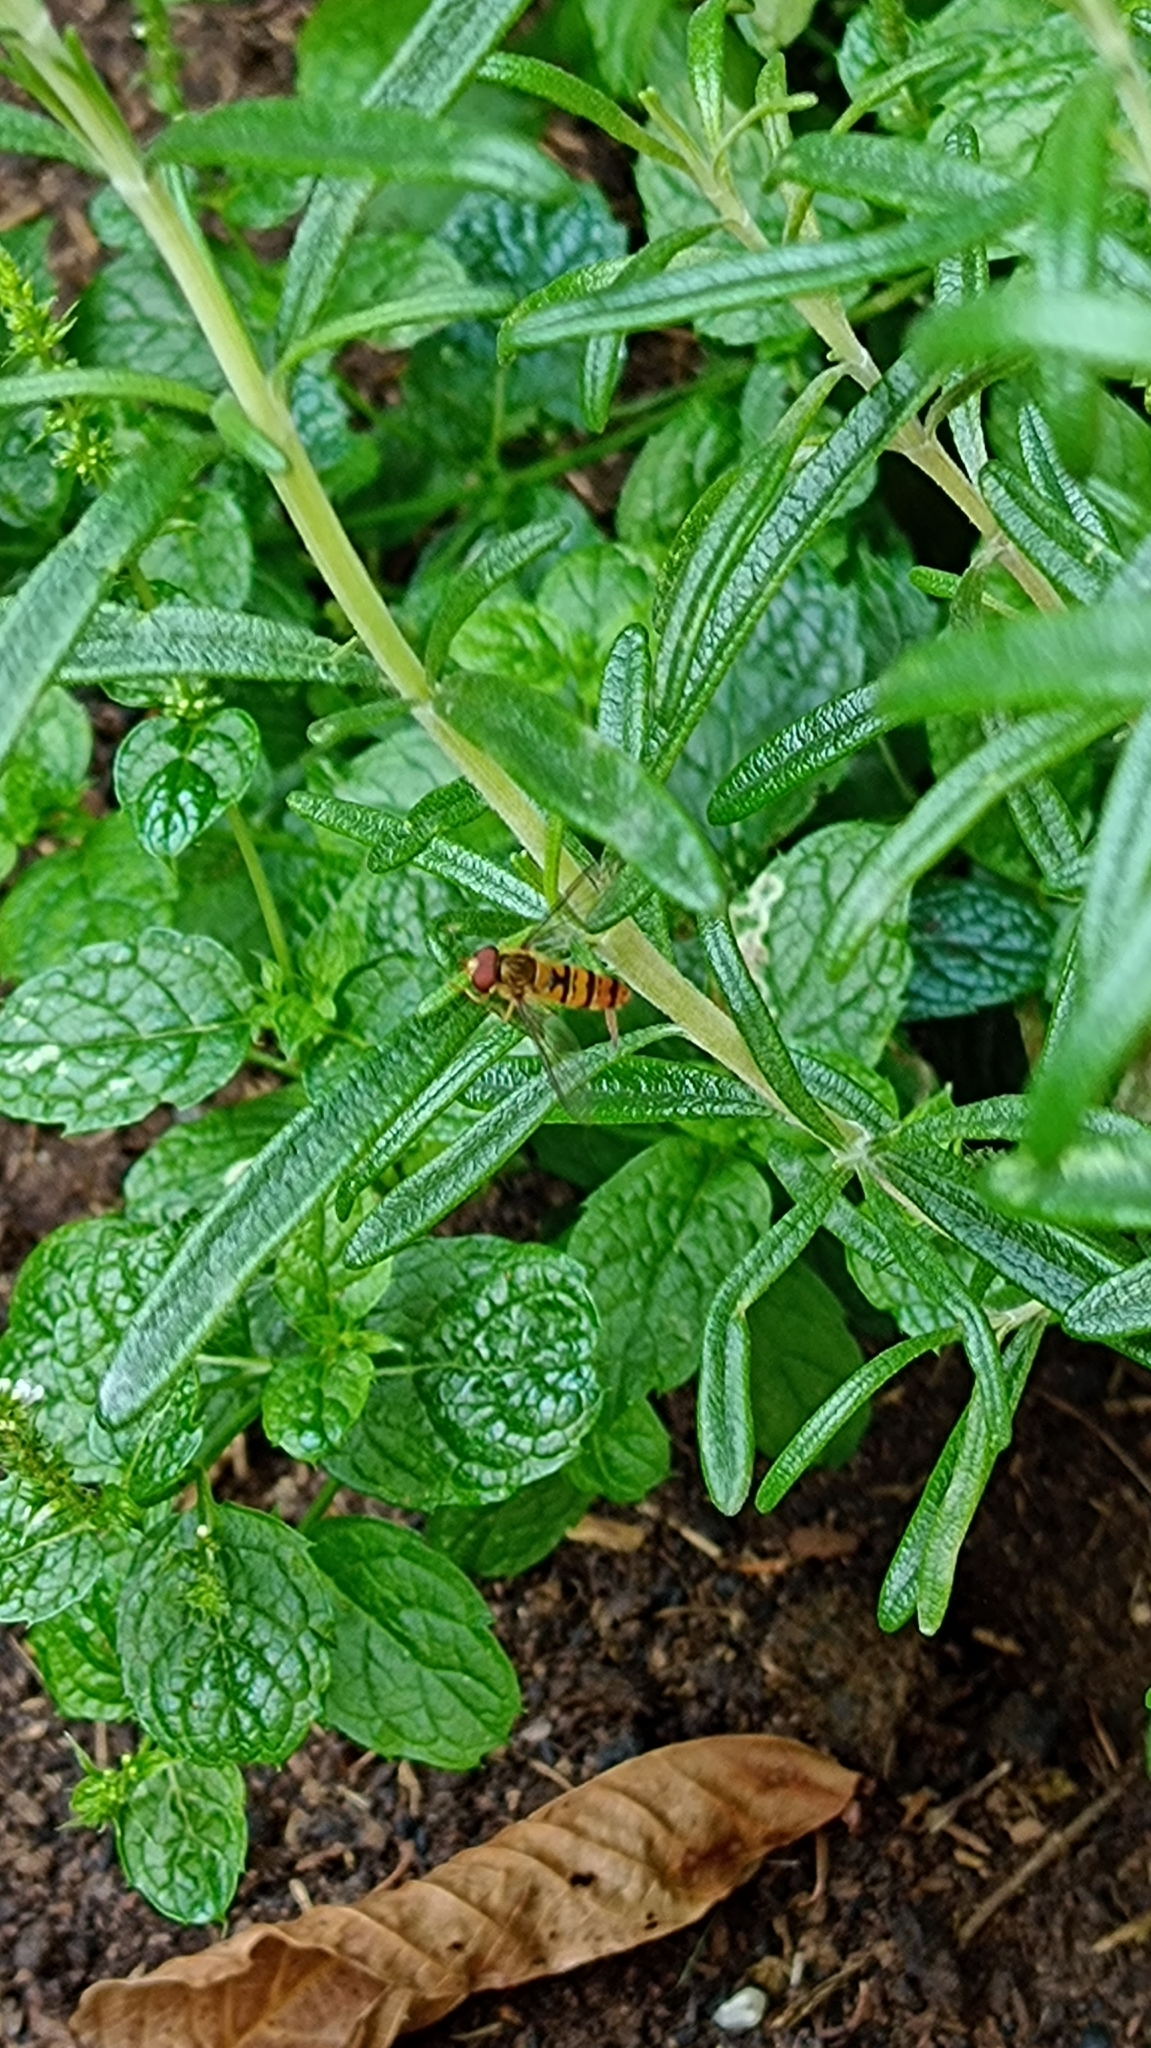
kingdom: Animalia
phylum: Arthropoda
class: Insecta
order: Diptera
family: Syrphidae
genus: Episyrphus
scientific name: Episyrphus balteatus
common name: Marmalade hoverfly
